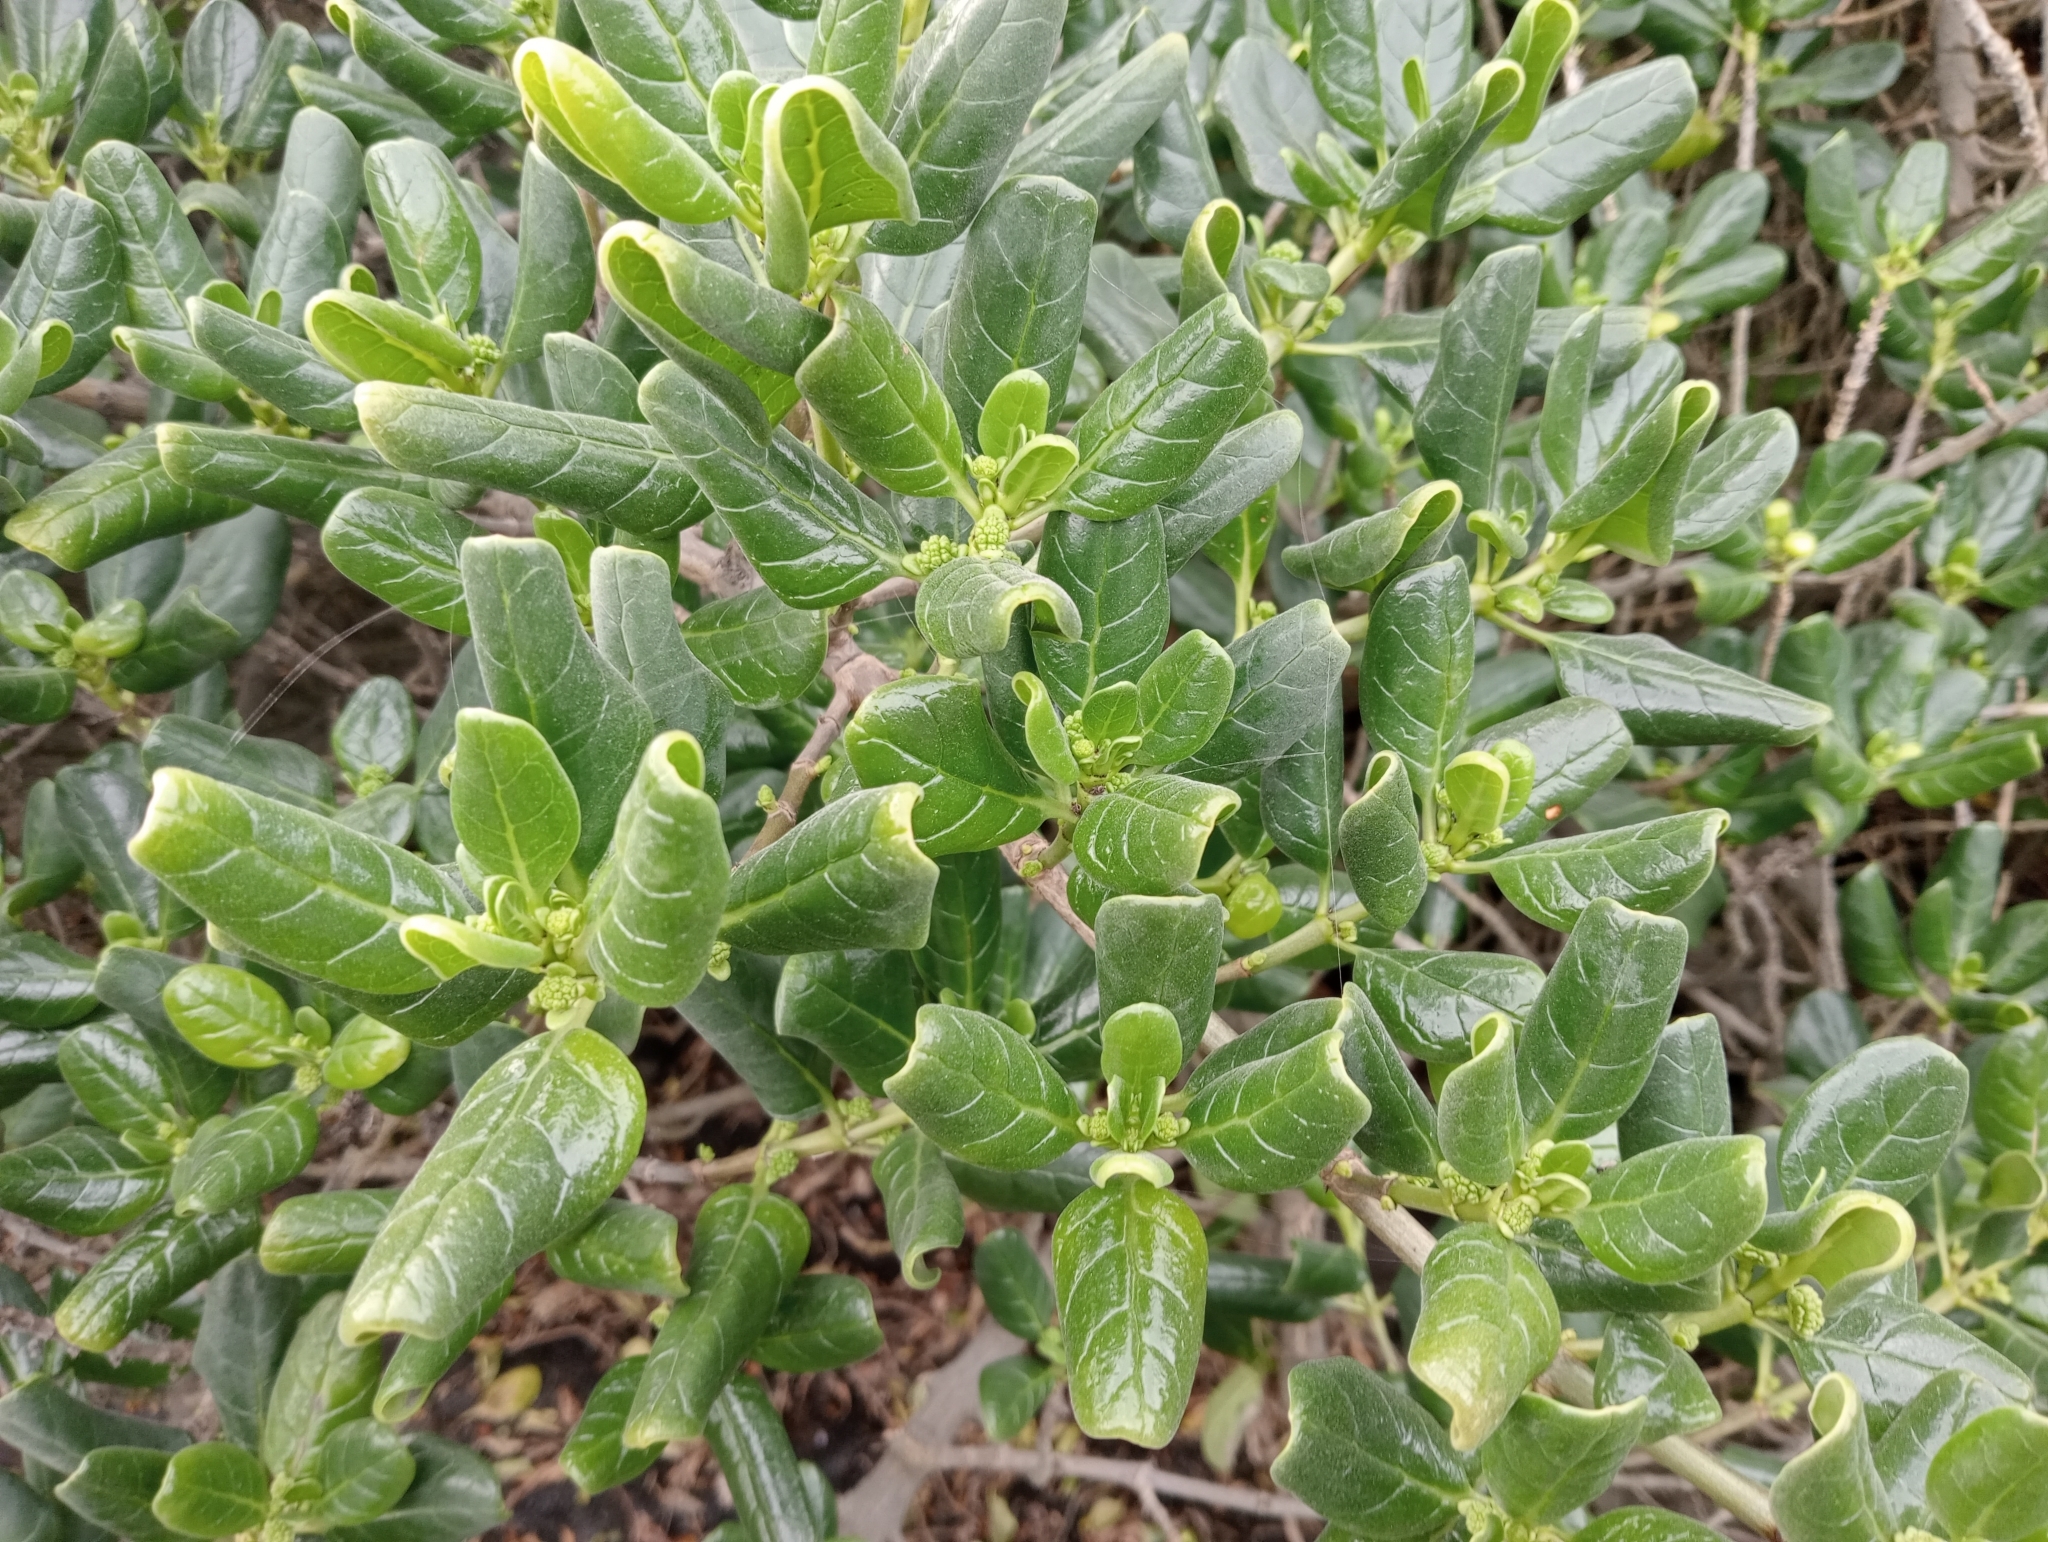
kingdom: Plantae
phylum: Tracheophyta
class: Magnoliopsida
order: Gentianales
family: Rubiaceae
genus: Coprosma
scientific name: Coprosma repens
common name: Tree bedstraw
